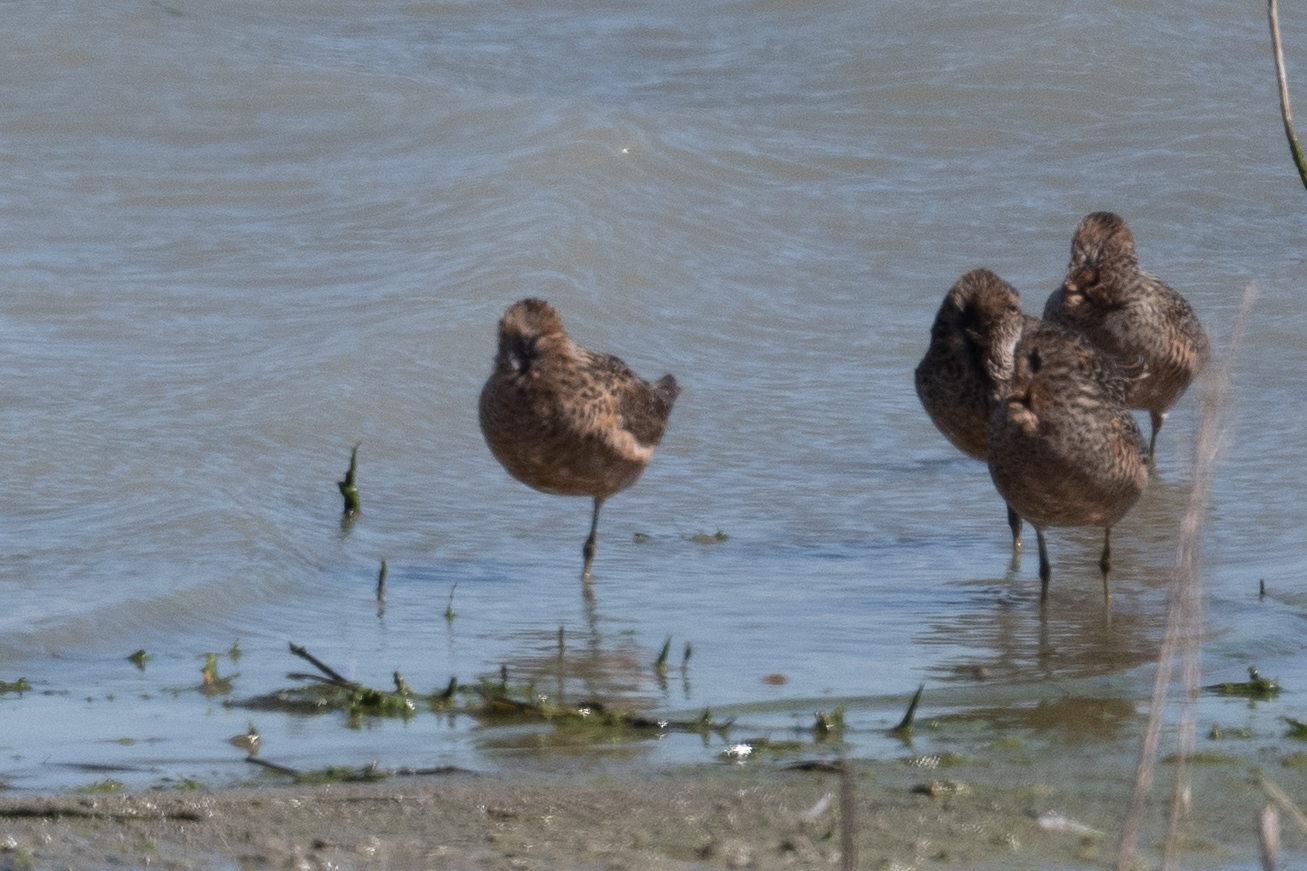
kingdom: Animalia
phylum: Chordata
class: Aves
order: Charadriiformes
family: Scolopacidae
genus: Limnodromus
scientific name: Limnodromus scolopaceus
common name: Long-billed dowitcher
